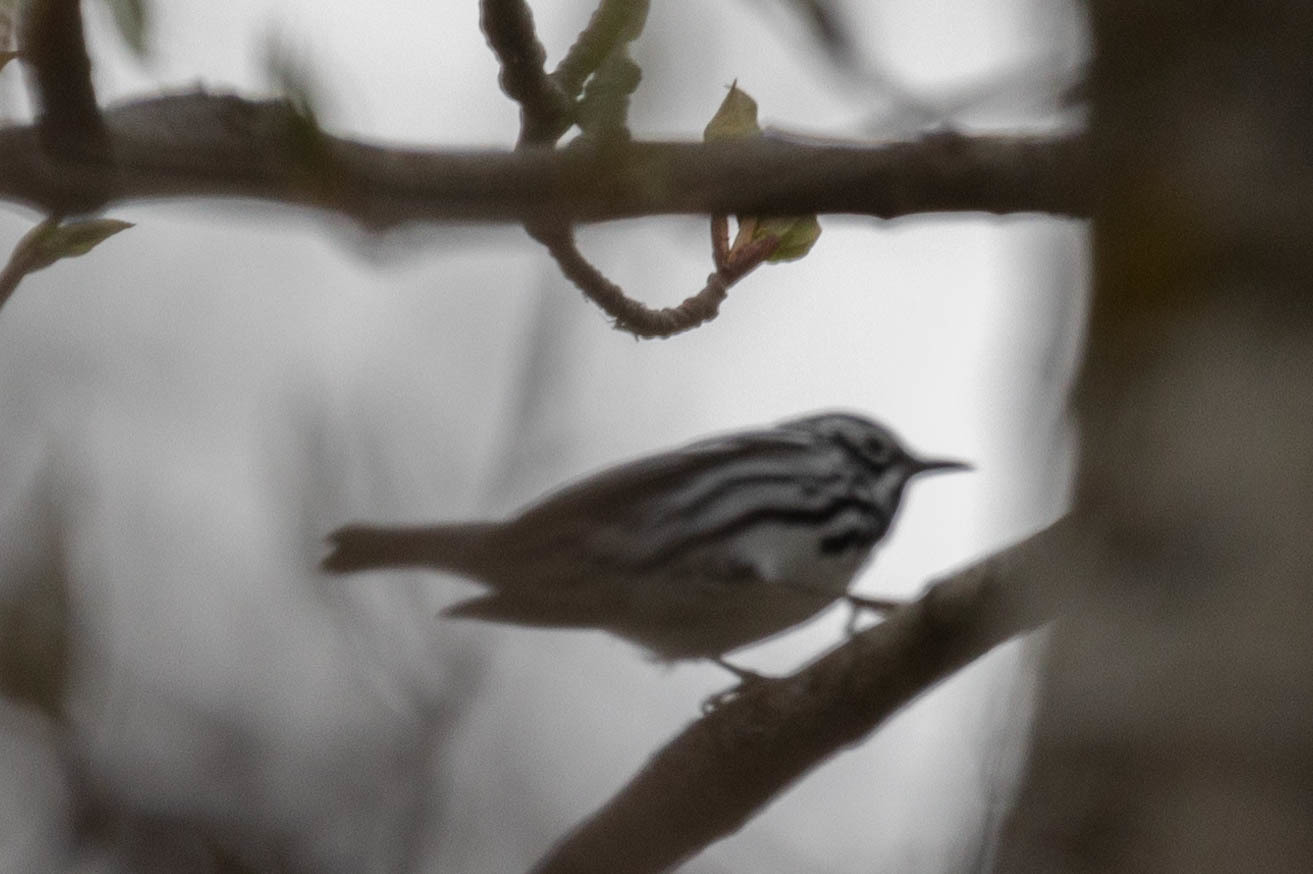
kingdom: Animalia
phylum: Chordata
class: Aves
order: Passeriformes
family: Parulidae
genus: Mniotilta
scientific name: Mniotilta varia
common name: Black-and-white warbler
